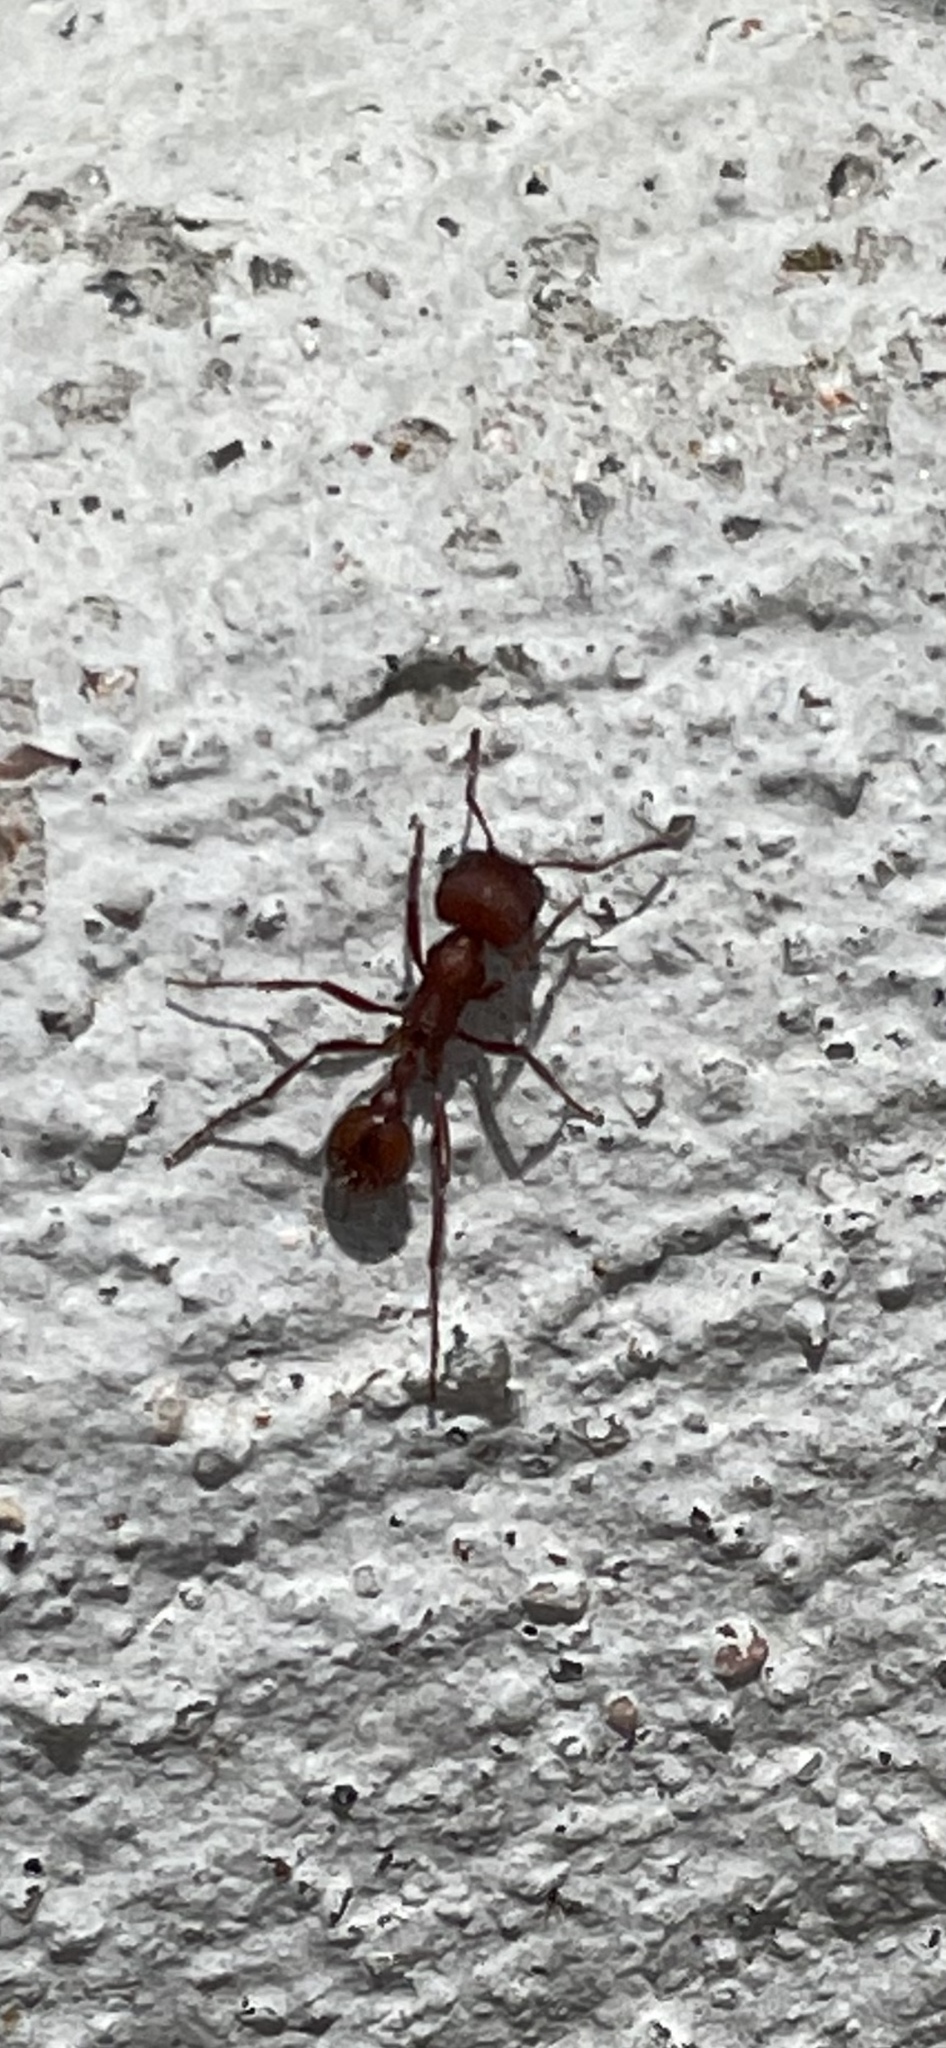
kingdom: Animalia
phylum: Arthropoda
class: Insecta
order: Hymenoptera
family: Formicidae
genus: Pogonomyrmex
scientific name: Pogonomyrmex occidentalis
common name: Western harvester ant
